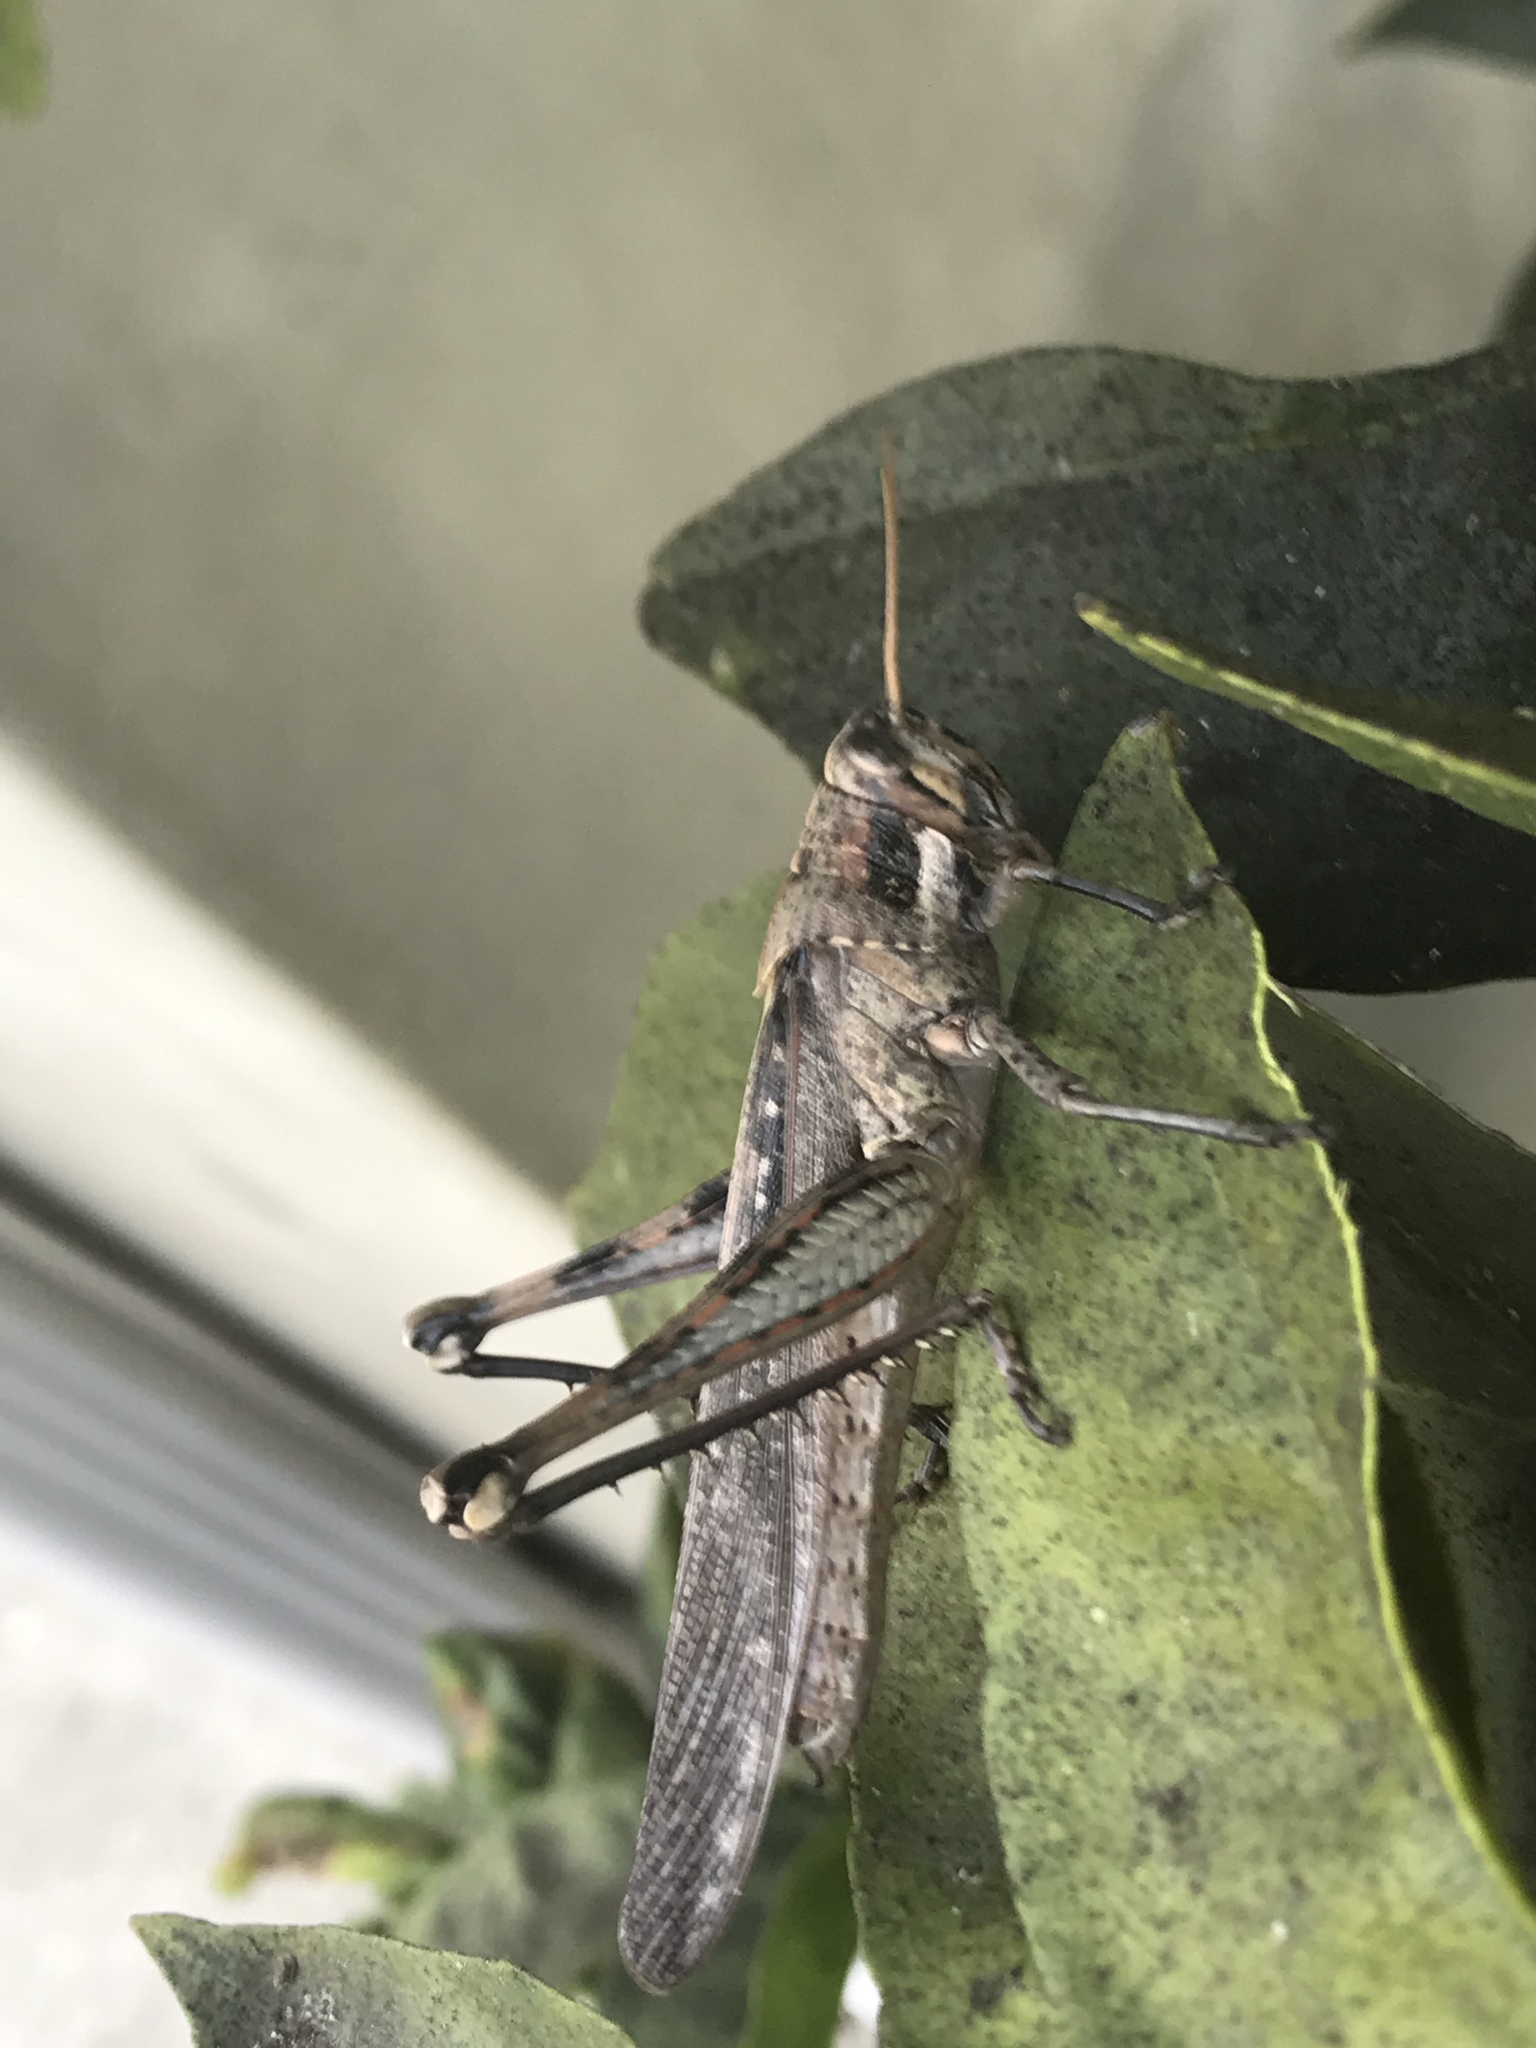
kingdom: Animalia
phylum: Arthropoda
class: Insecta
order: Orthoptera
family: Acrididae
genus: Schistocerca
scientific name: Schistocerca nitens
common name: Vagrant grasshopper
